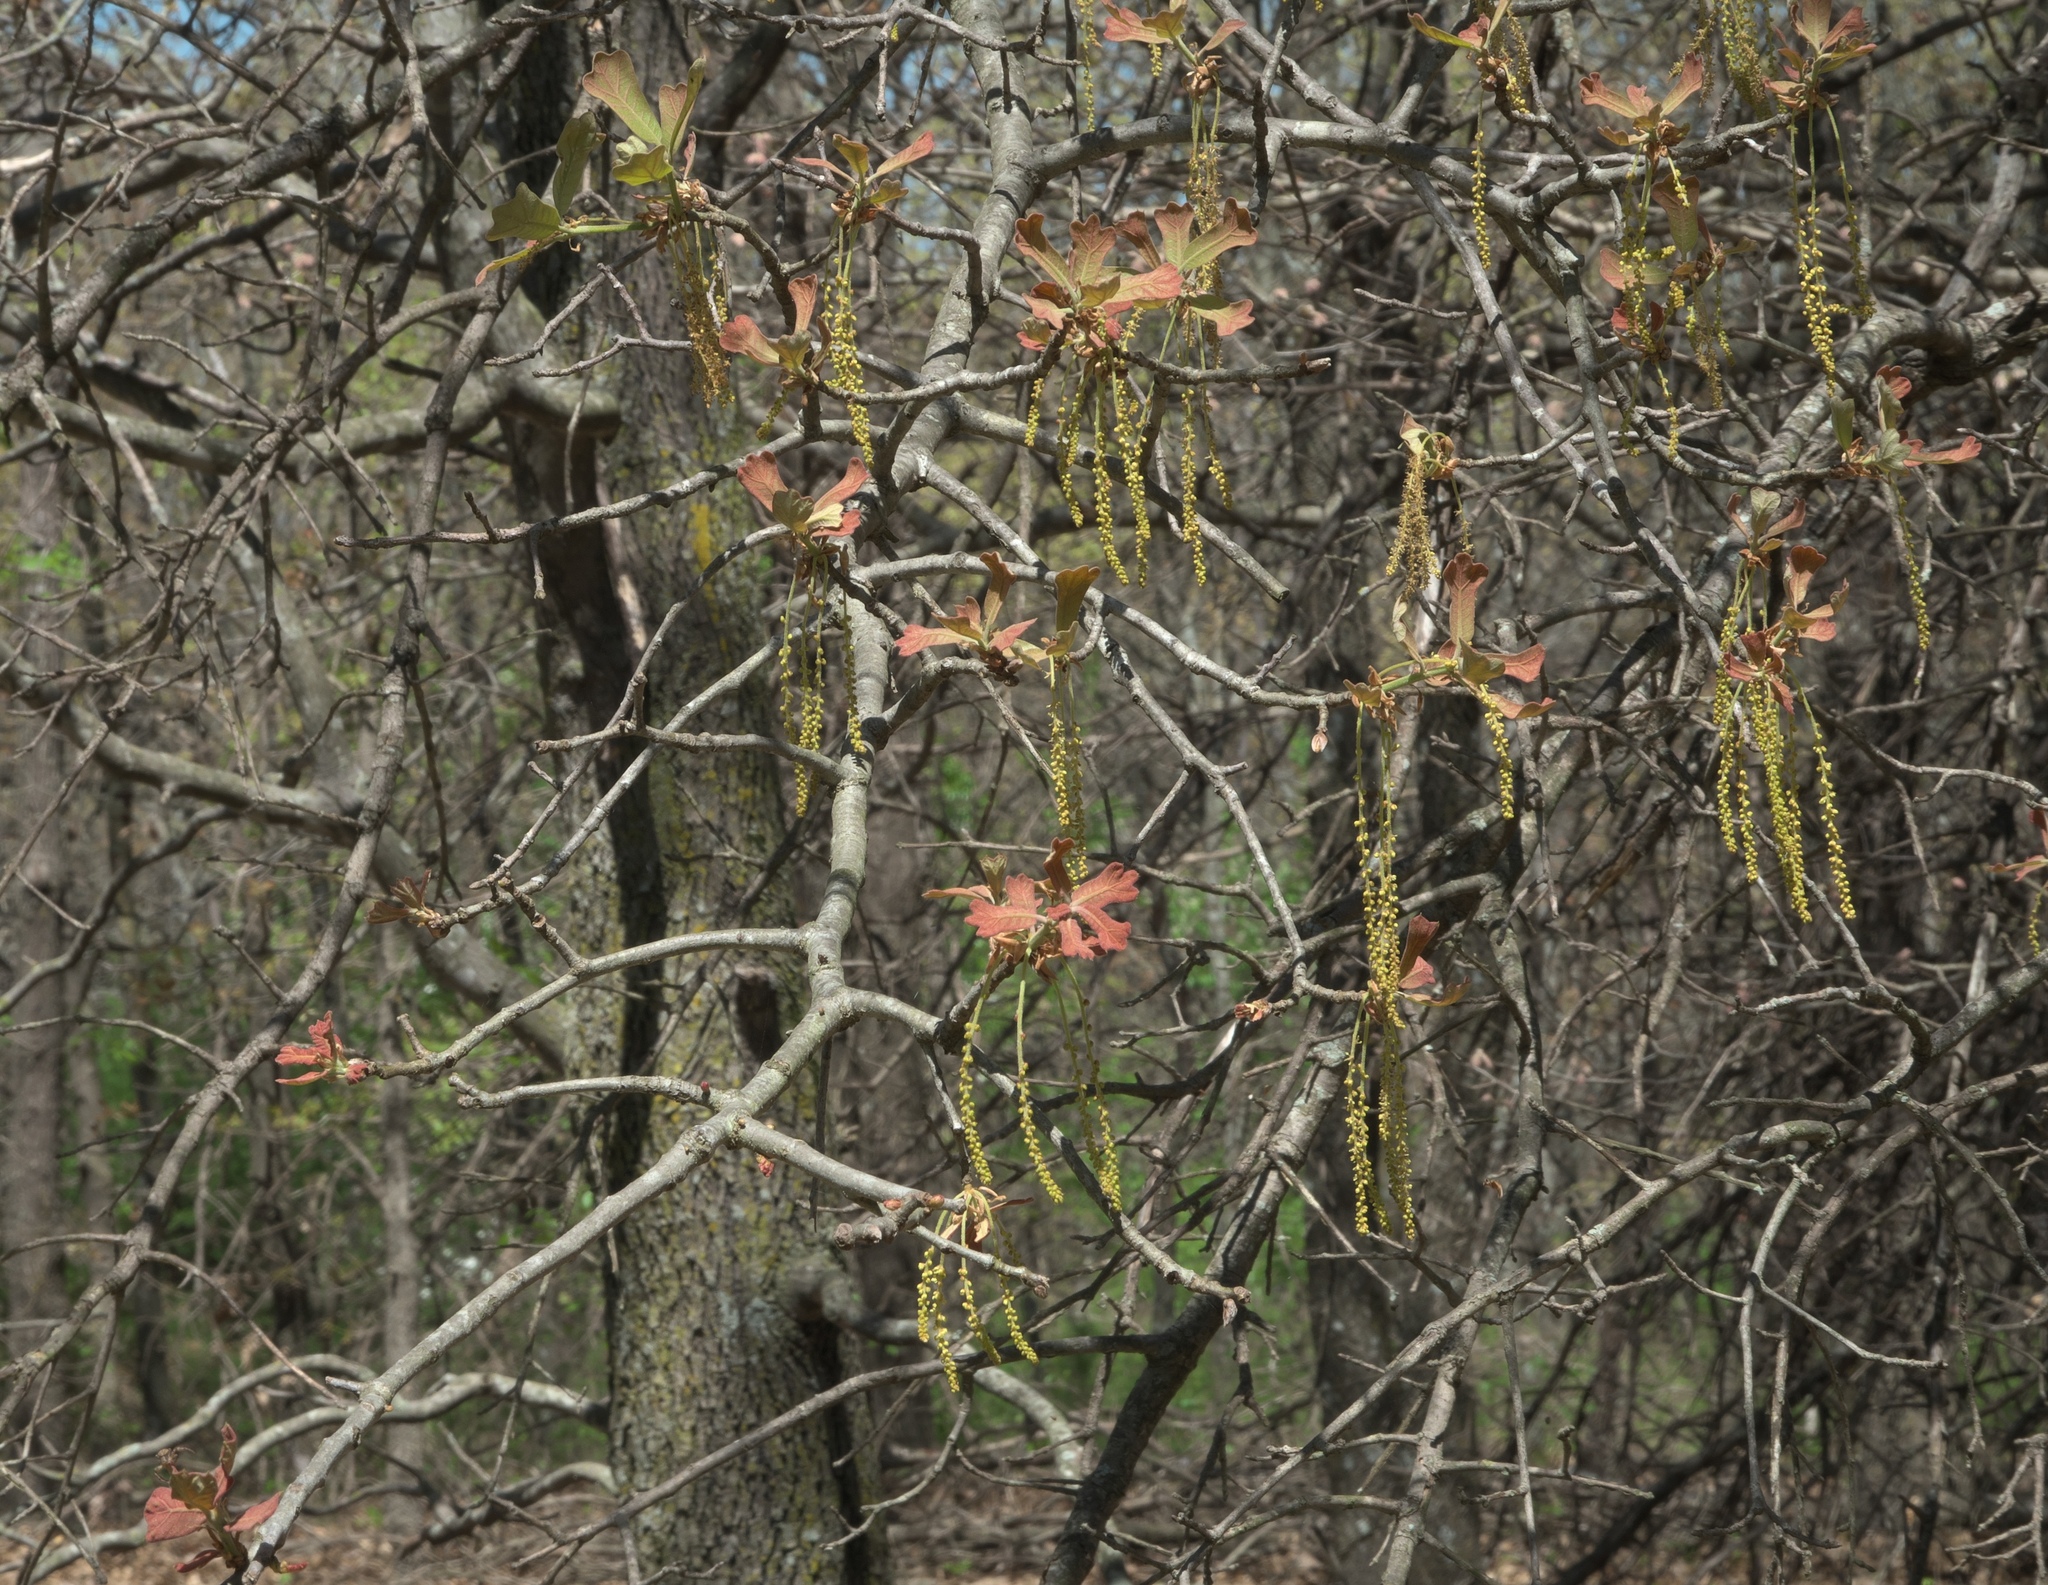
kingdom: Plantae
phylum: Tracheophyta
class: Magnoliopsida
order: Fagales
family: Fagaceae
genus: Quercus
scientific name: Quercus marilandica
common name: Blackjack oak
